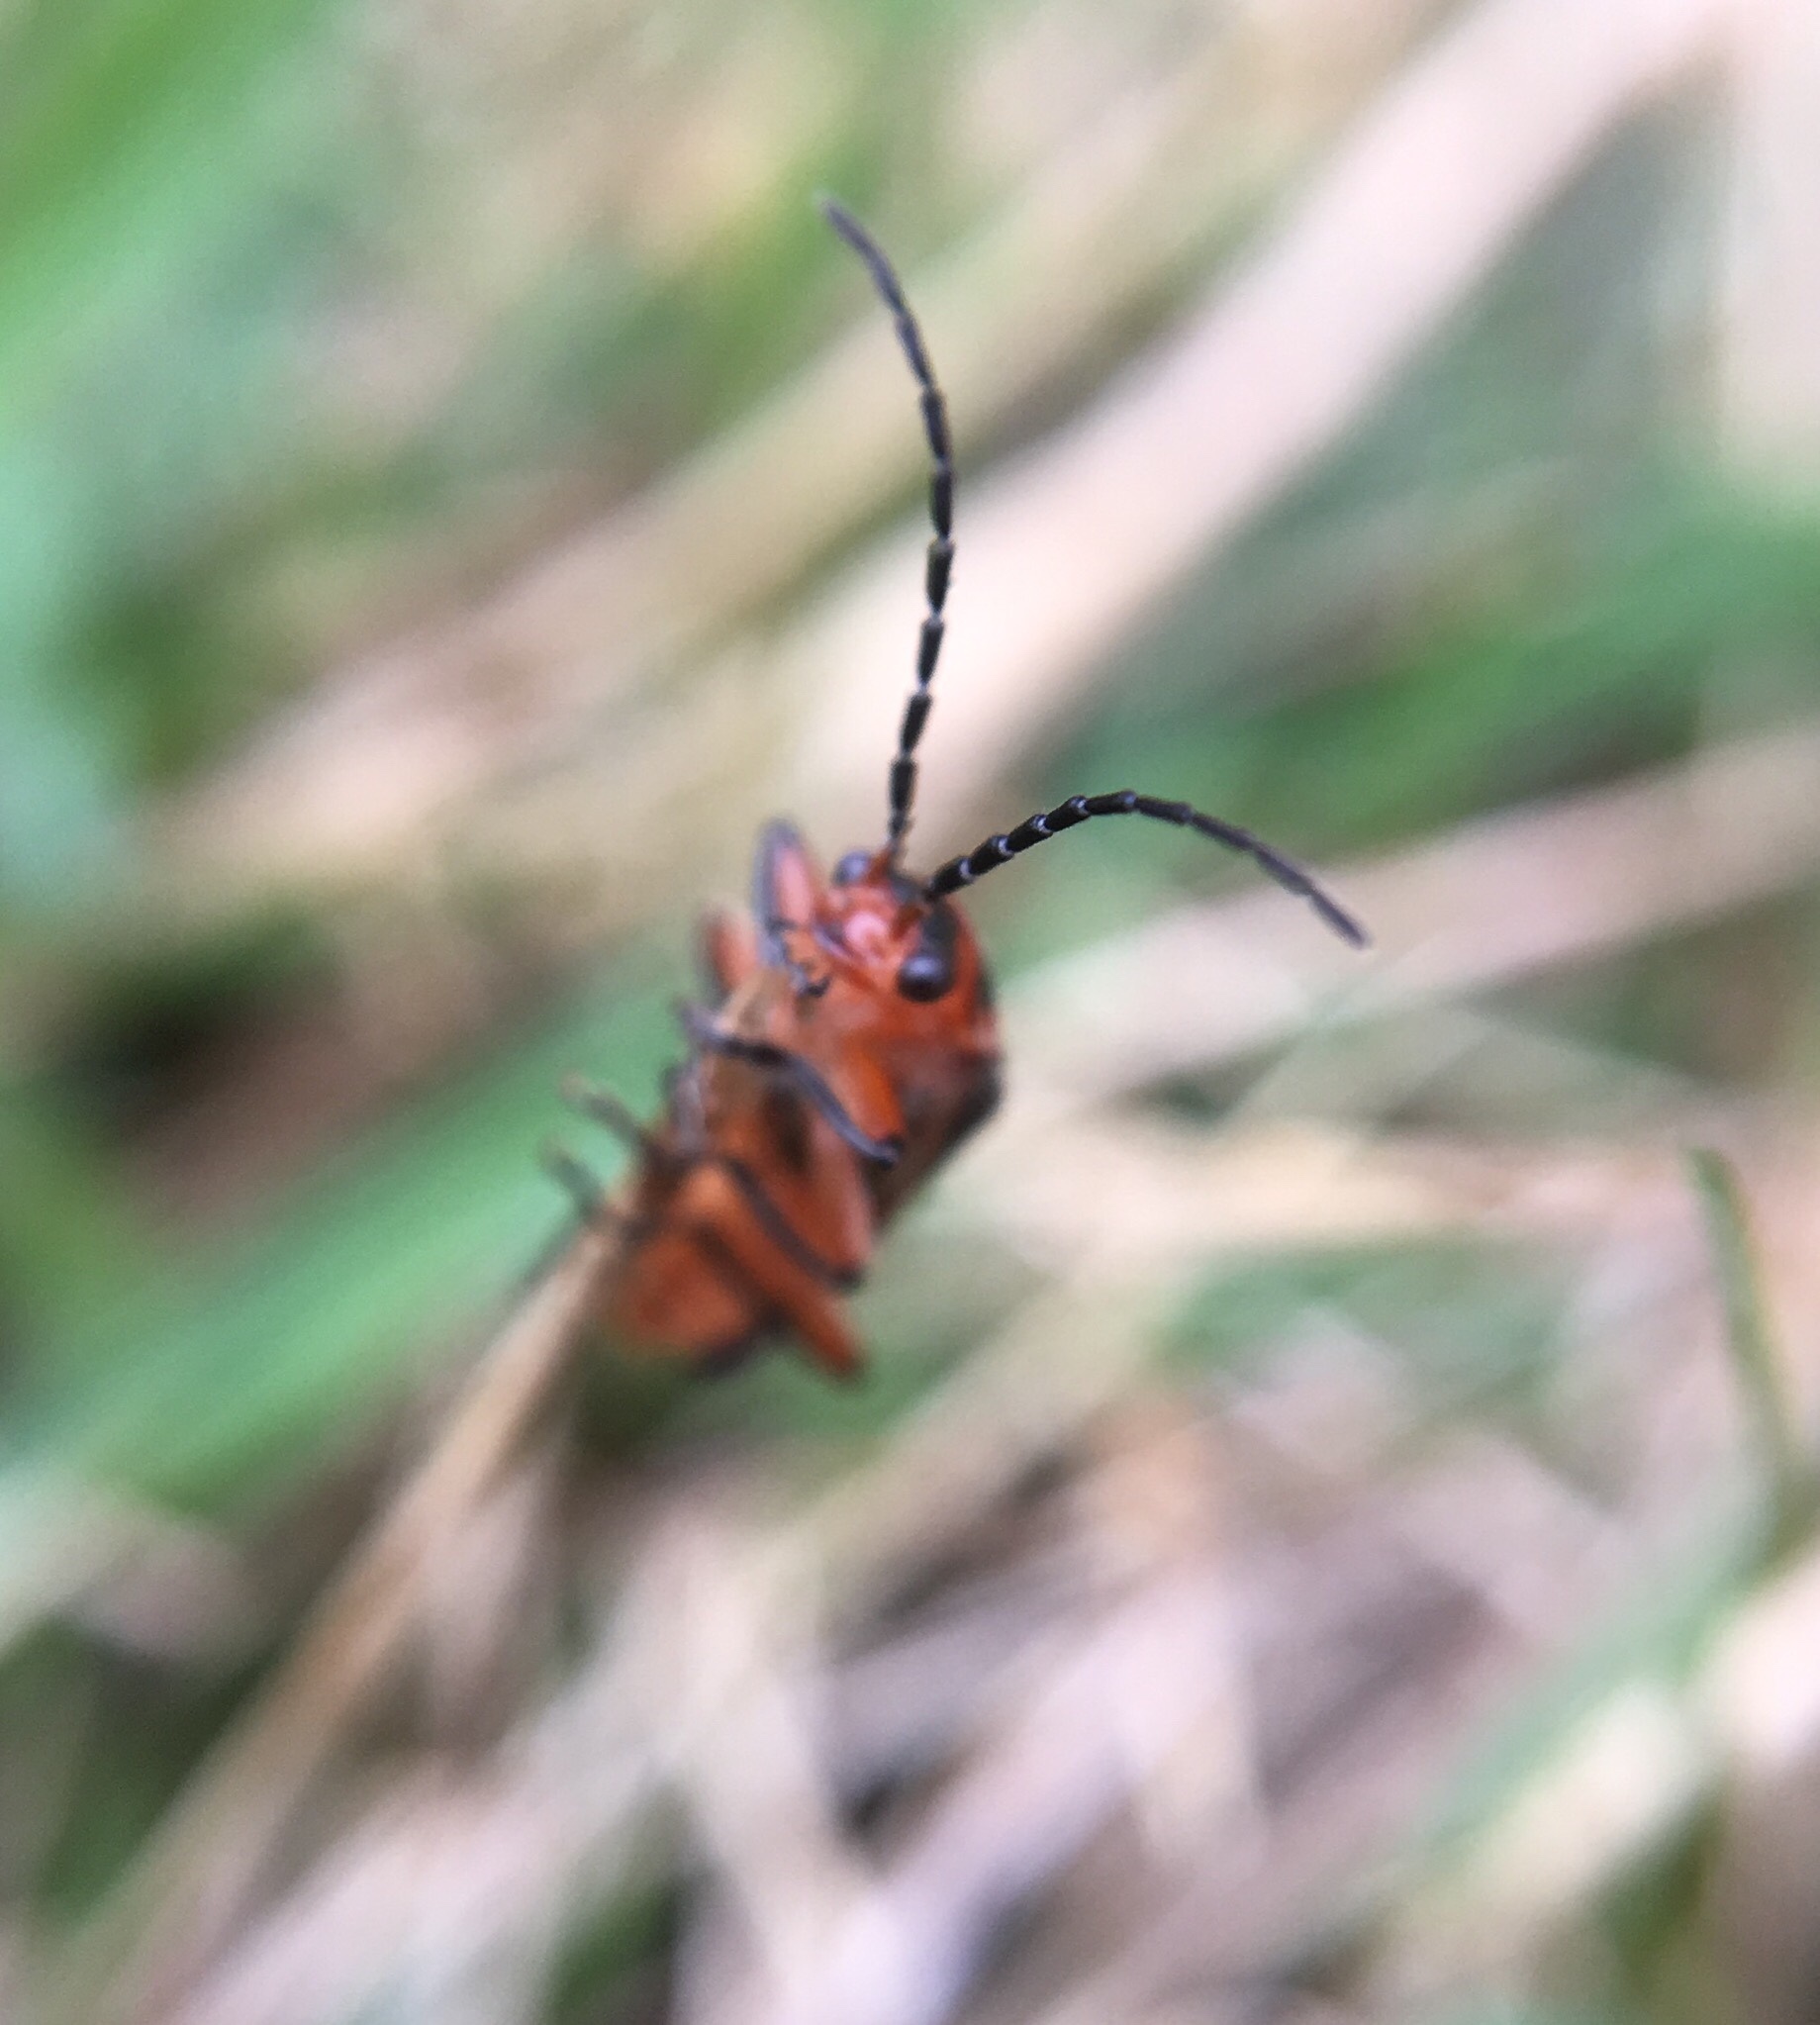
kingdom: Animalia
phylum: Arthropoda
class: Insecta
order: Coleoptera
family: Cantharidae
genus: Atalantycha
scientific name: Atalantycha bilineata
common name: Two-lined leatherwing
